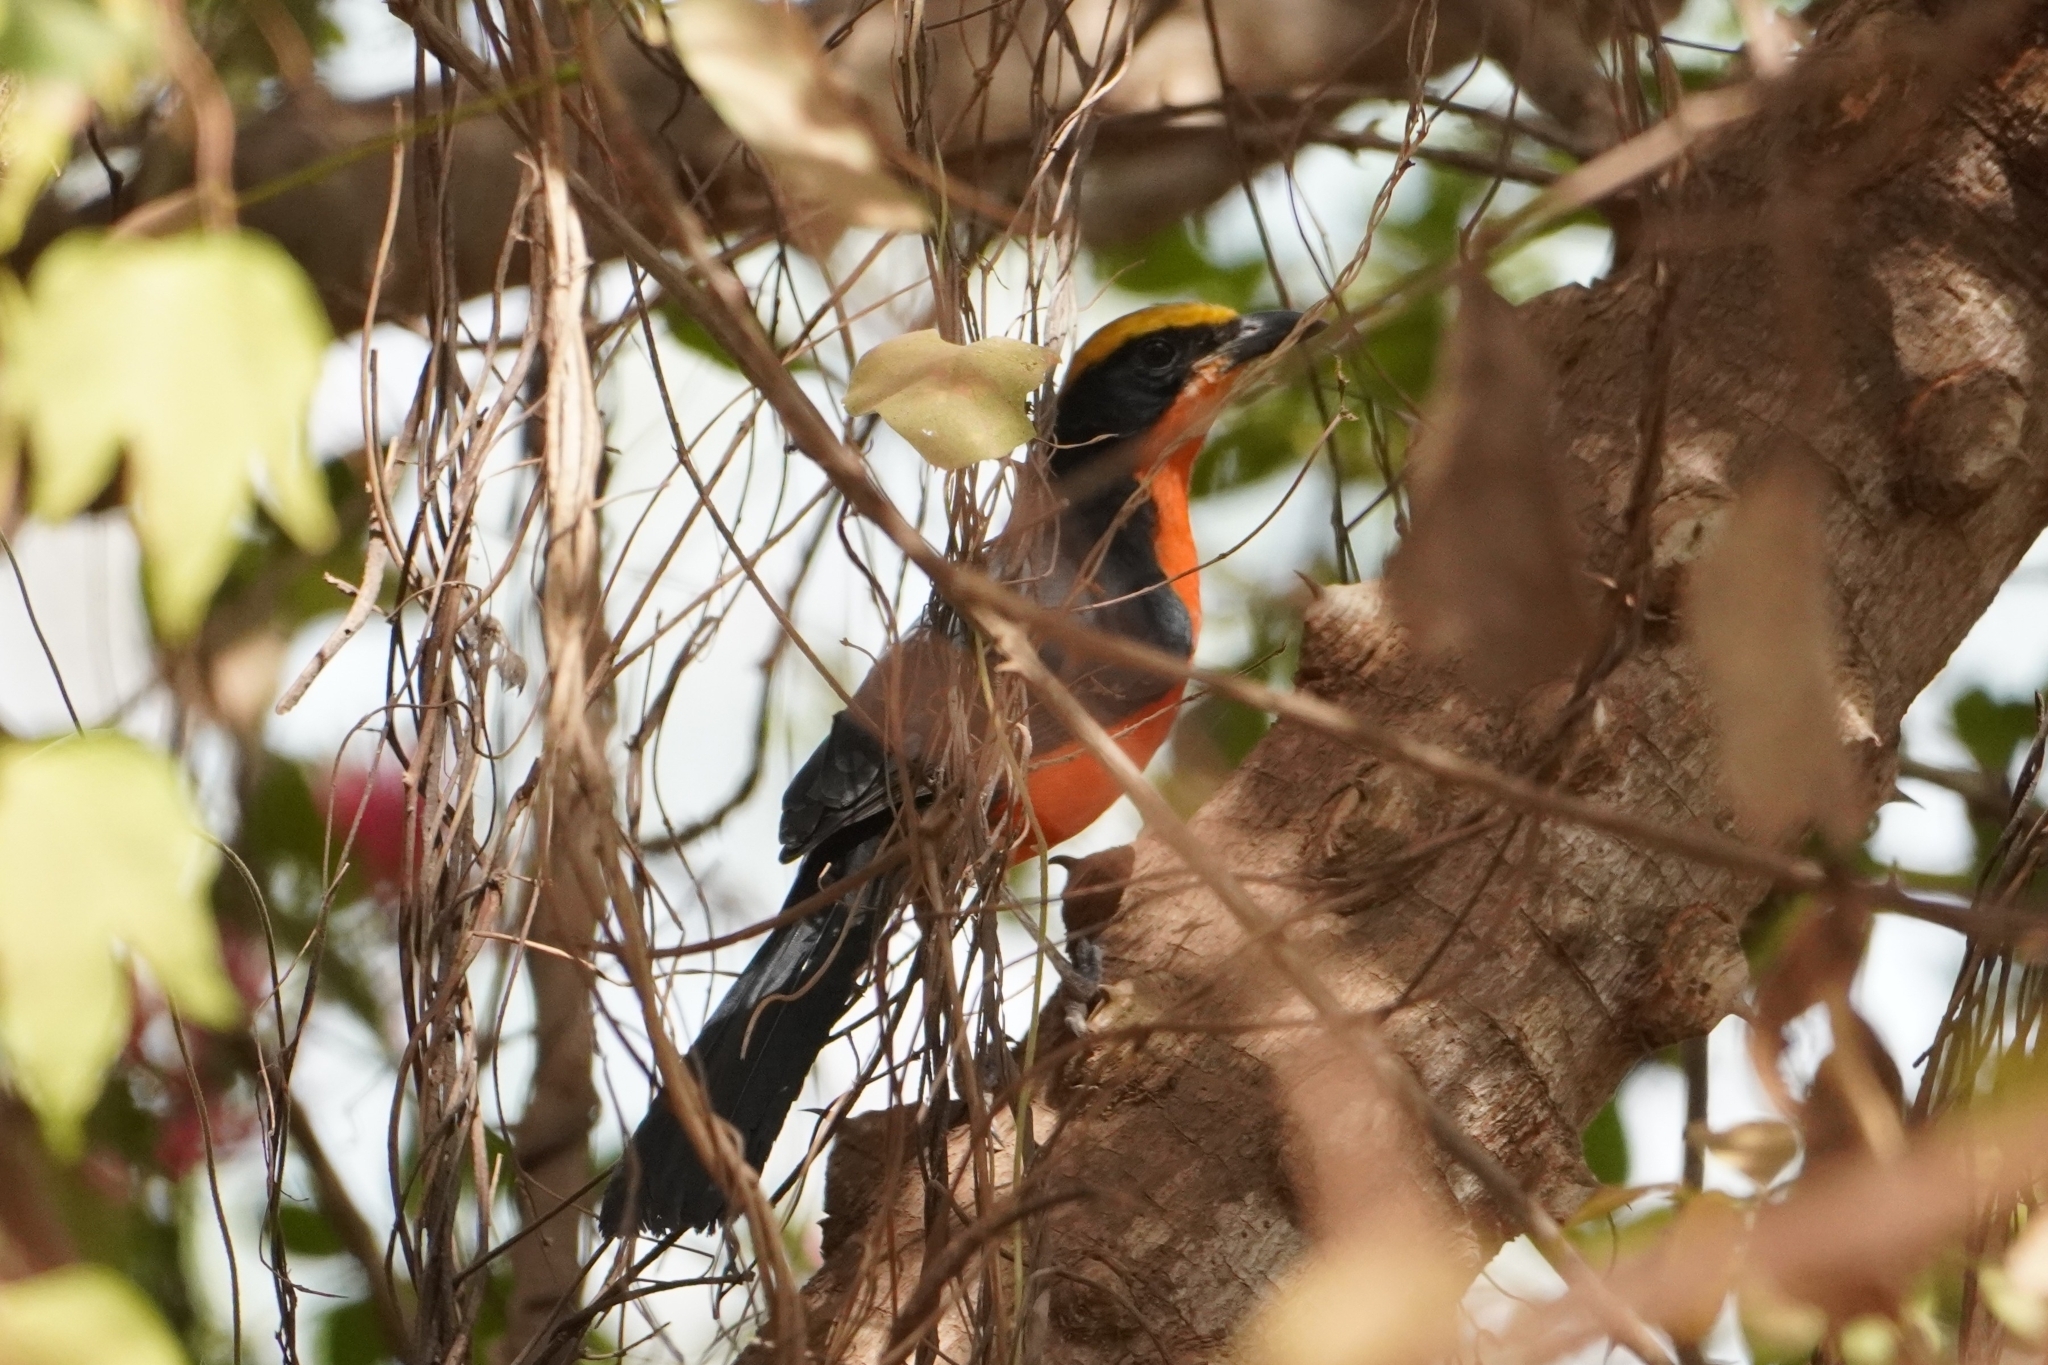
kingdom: Animalia
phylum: Chordata
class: Aves
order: Passeriformes
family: Malaconotidae
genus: Laniarius
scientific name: Laniarius barbarus
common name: Yellow-crowned gonolek
